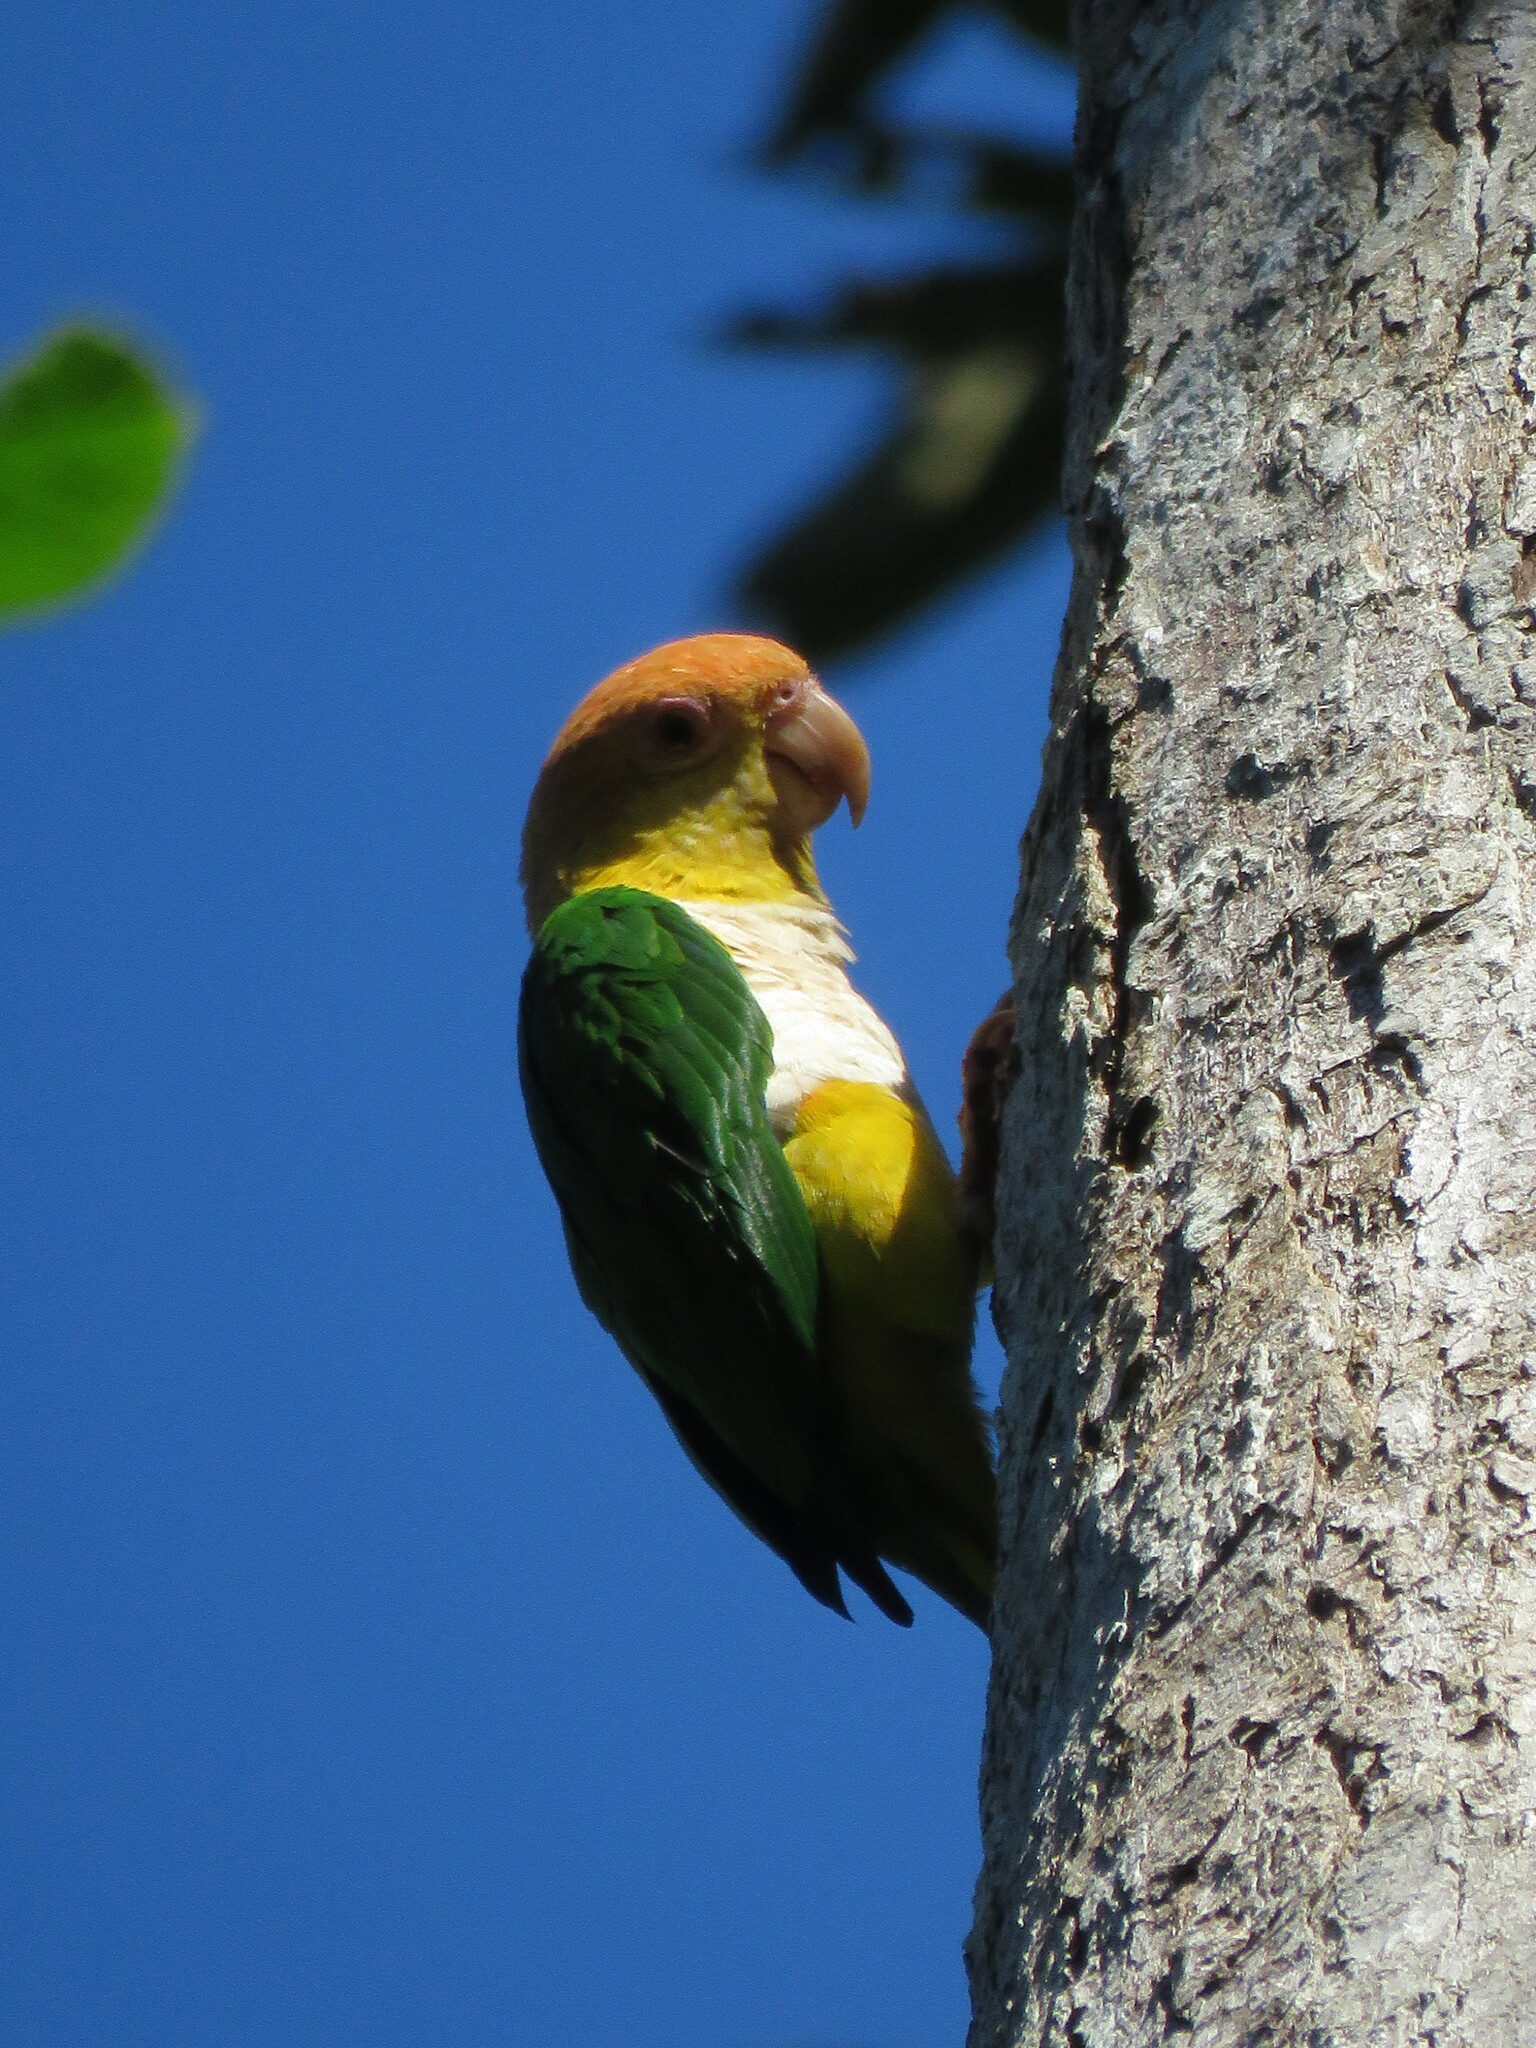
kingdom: Animalia
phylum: Chordata
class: Aves
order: Psittaciformes
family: Psittacidae
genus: Pionites
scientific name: Pionites leucogaster
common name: White-bellied parrot
